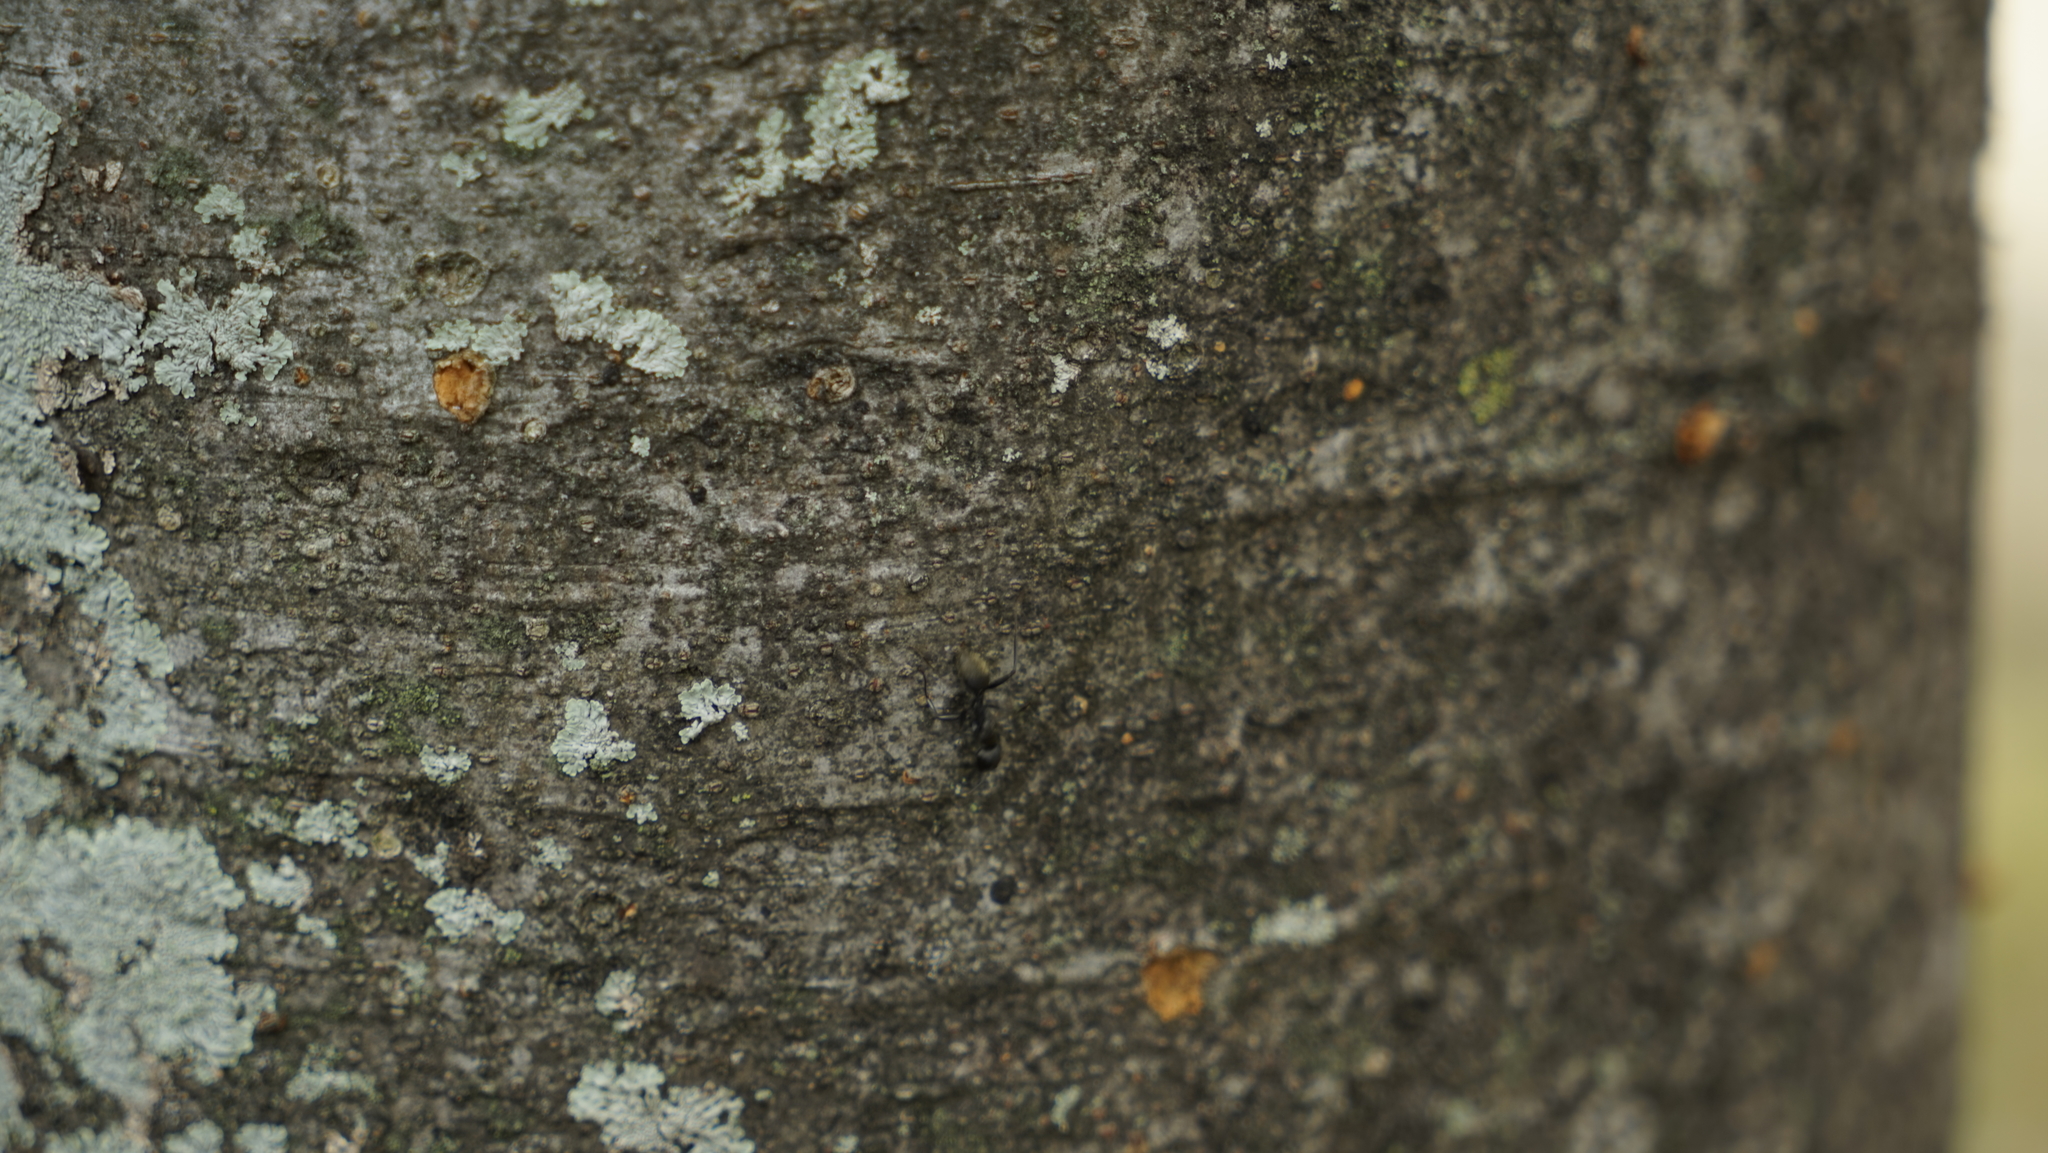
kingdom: Animalia
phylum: Arthropoda
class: Insecta
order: Hymenoptera
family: Formicidae
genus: Camponotus
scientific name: Camponotus japonicus
